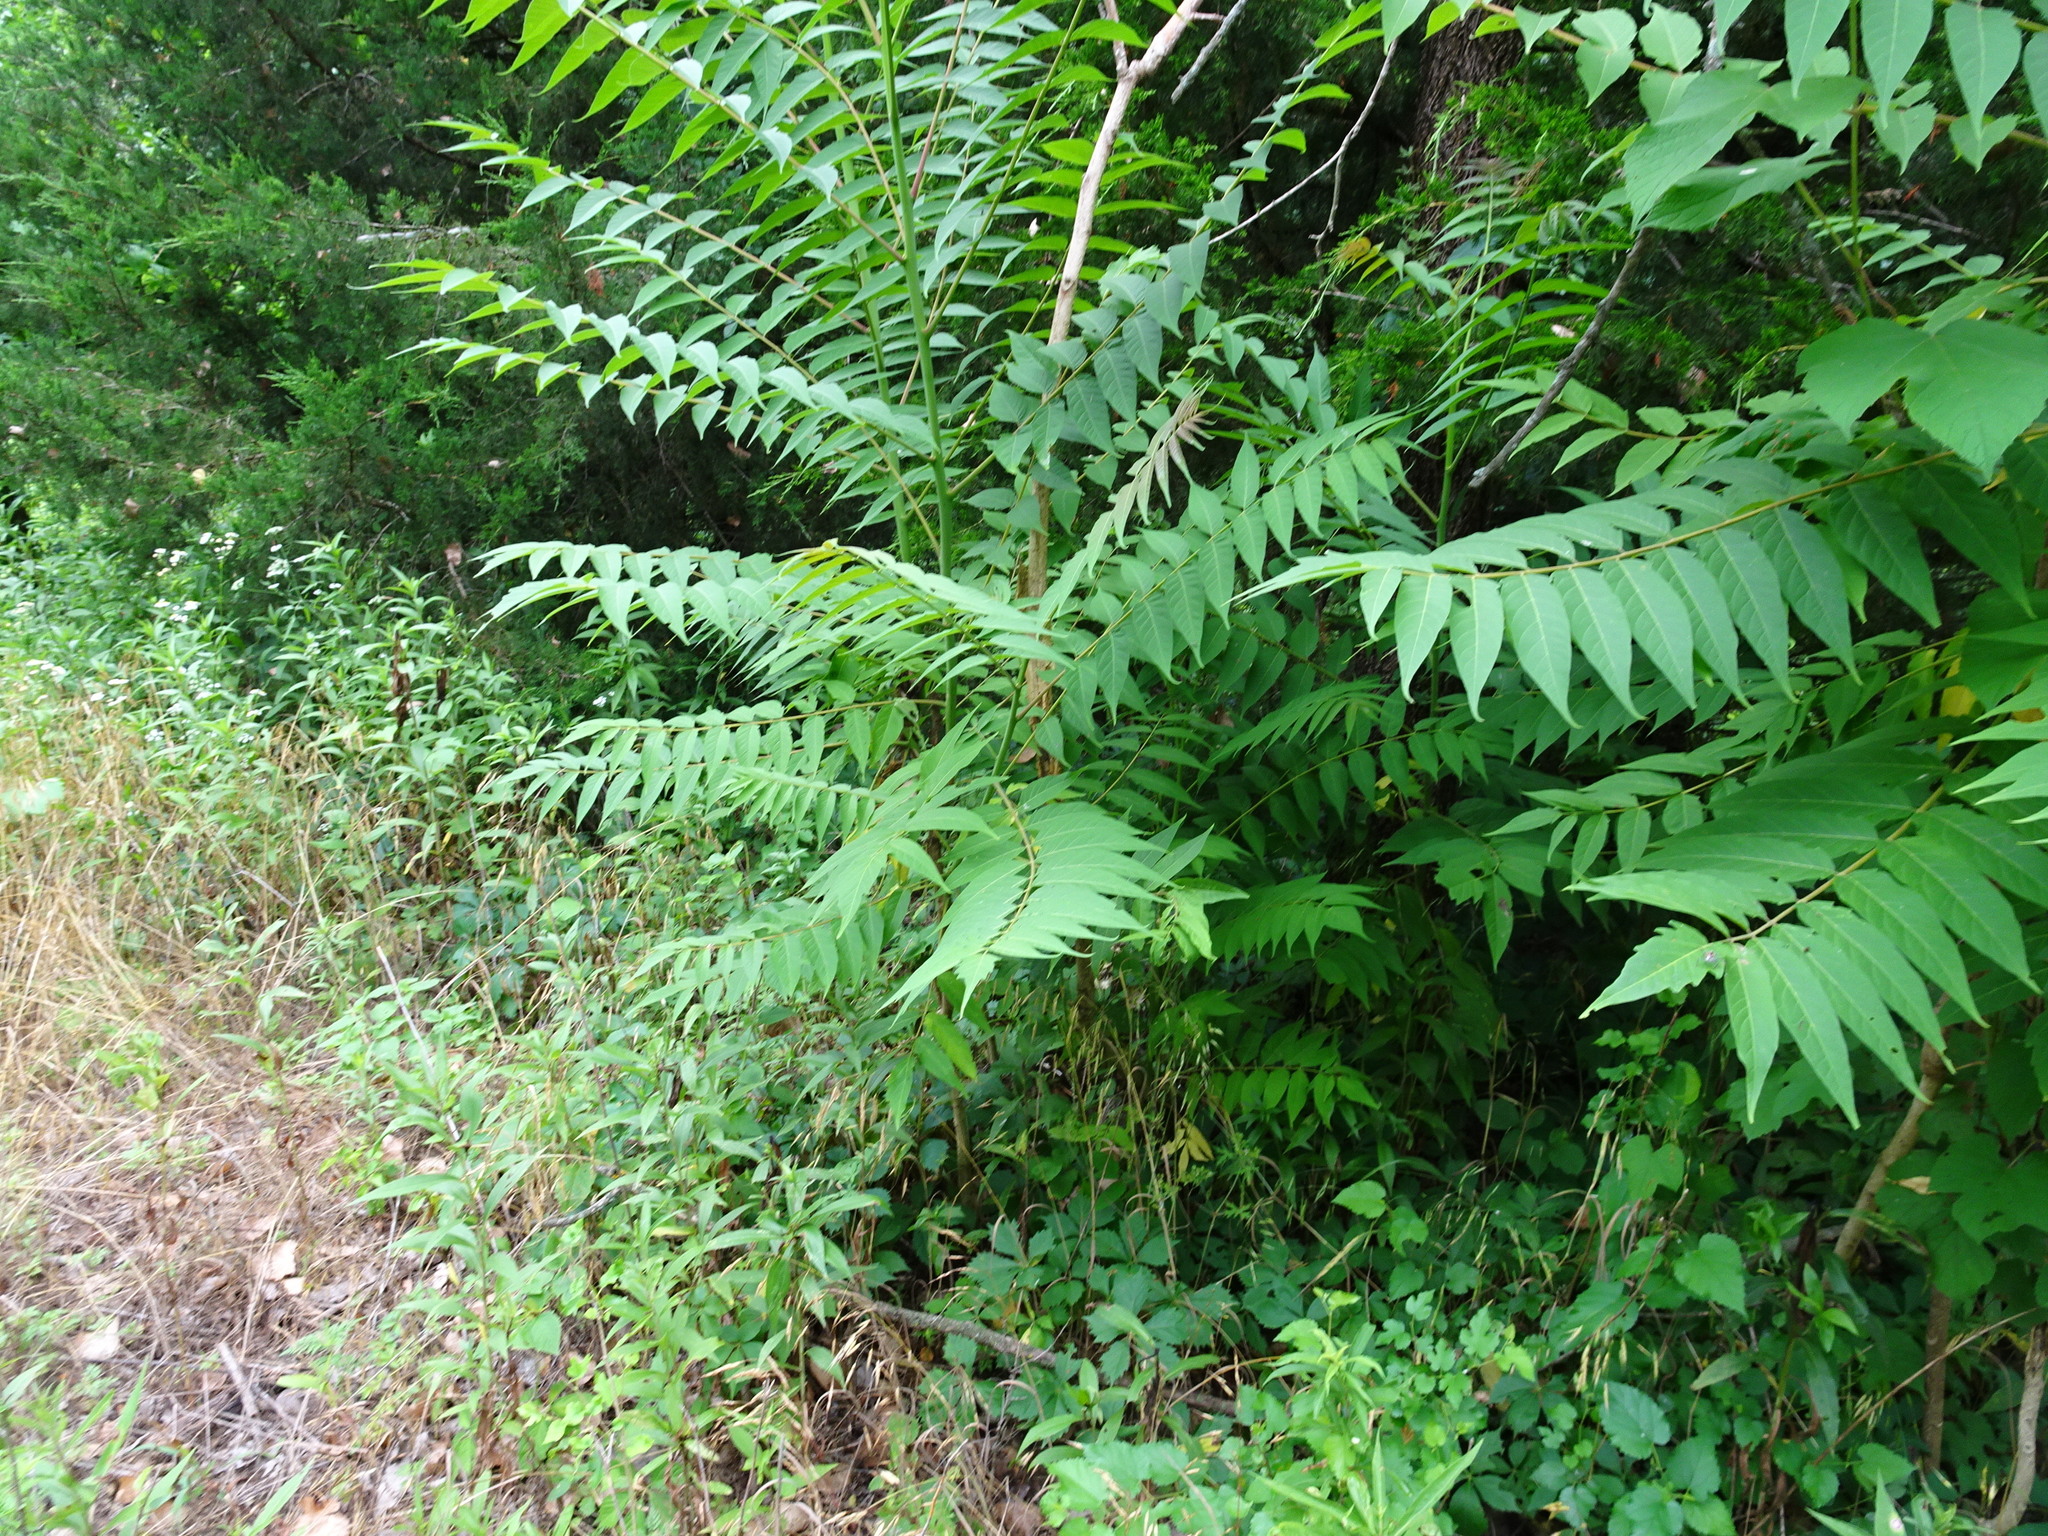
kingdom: Plantae
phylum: Tracheophyta
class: Magnoliopsida
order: Sapindales
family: Simaroubaceae
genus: Ailanthus
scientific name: Ailanthus altissima
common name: Tree-of-heaven
